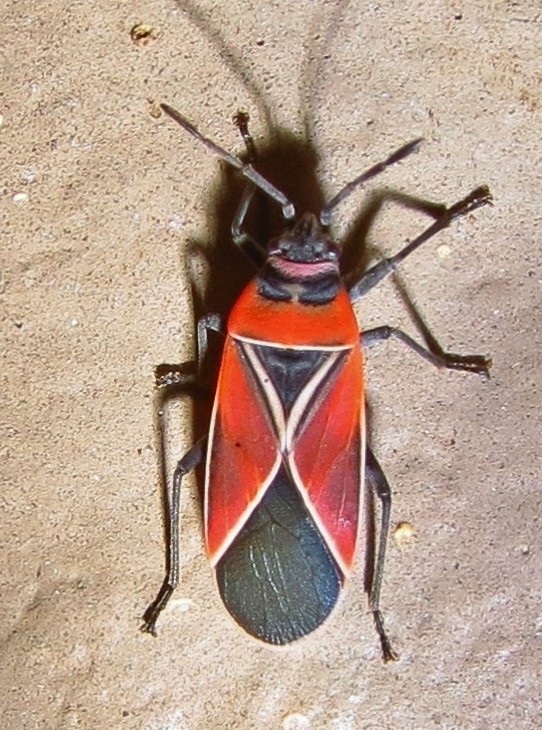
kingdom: Animalia
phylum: Arthropoda
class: Insecta
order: Hemiptera
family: Lygaeidae
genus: Neacoryphus
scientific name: Neacoryphus bicrucis
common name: Lygaeid bug
